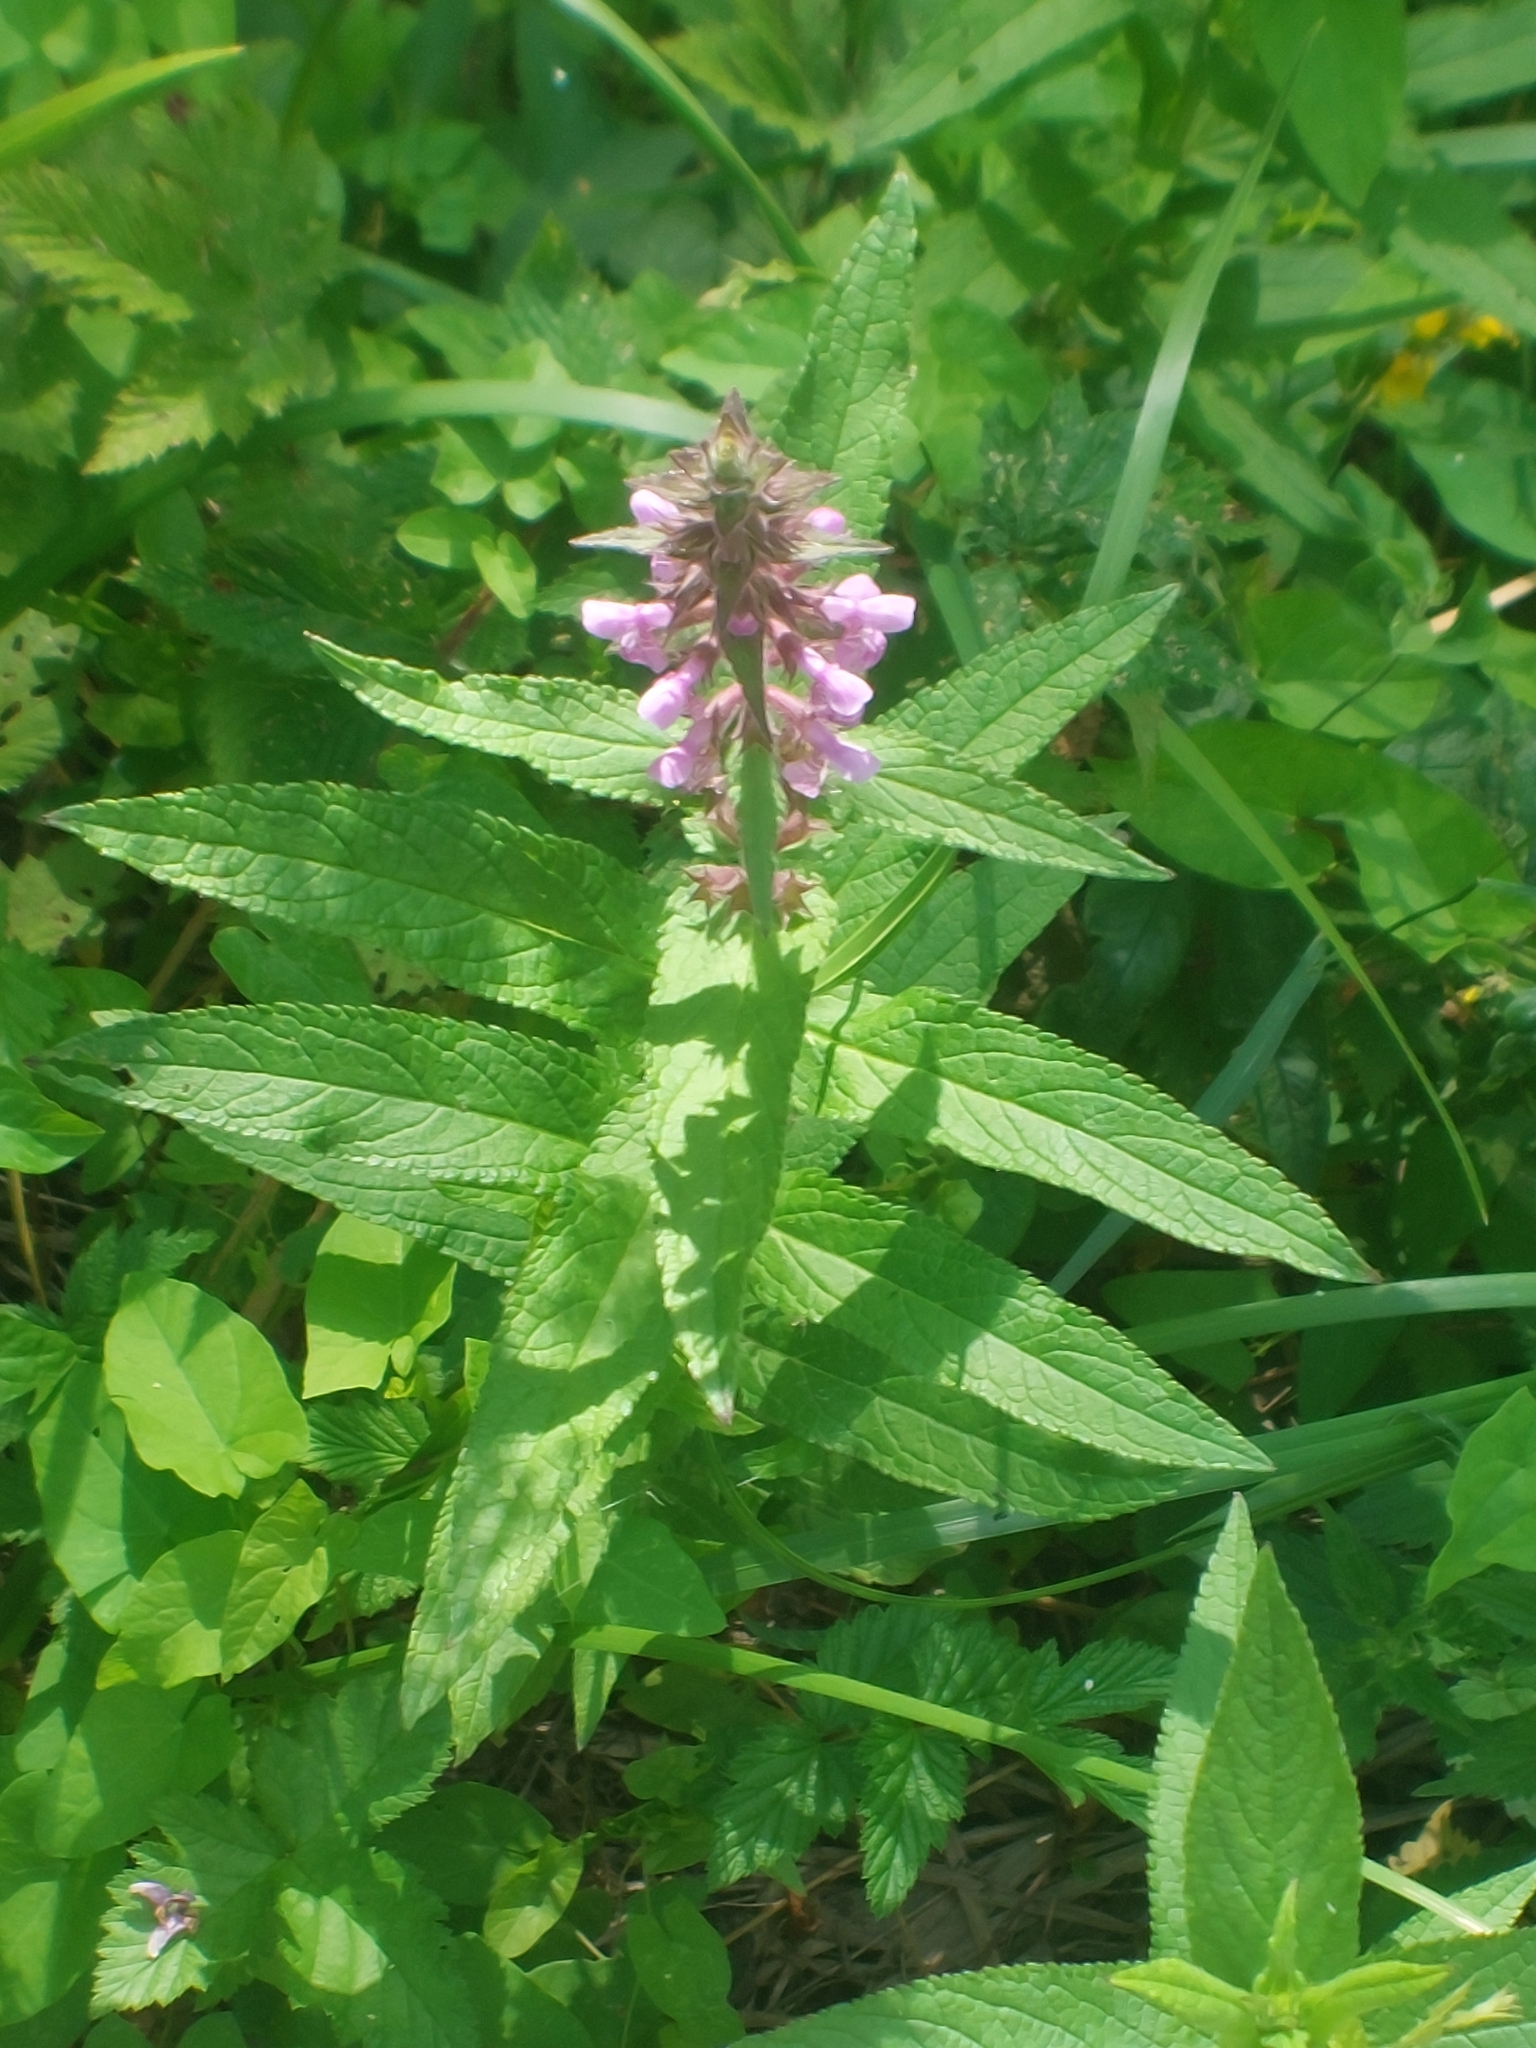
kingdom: Plantae
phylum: Tracheophyta
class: Magnoliopsida
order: Lamiales
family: Lamiaceae
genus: Stachys
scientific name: Stachys palustris
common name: Marsh woundwort
